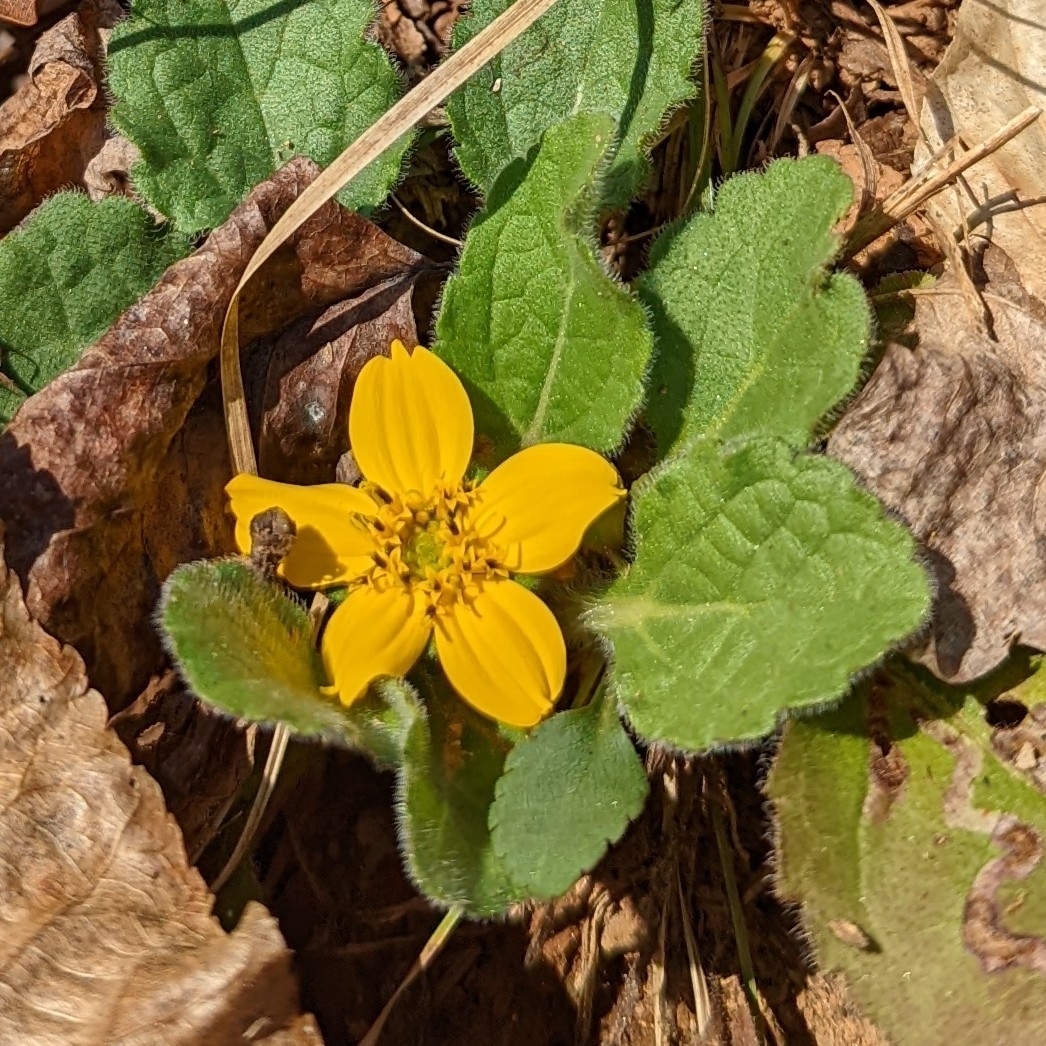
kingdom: Plantae
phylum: Tracheophyta
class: Magnoliopsida
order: Asterales
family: Asteraceae
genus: Chrysogonum
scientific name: Chrysogonum virginianum
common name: Golden-knee
